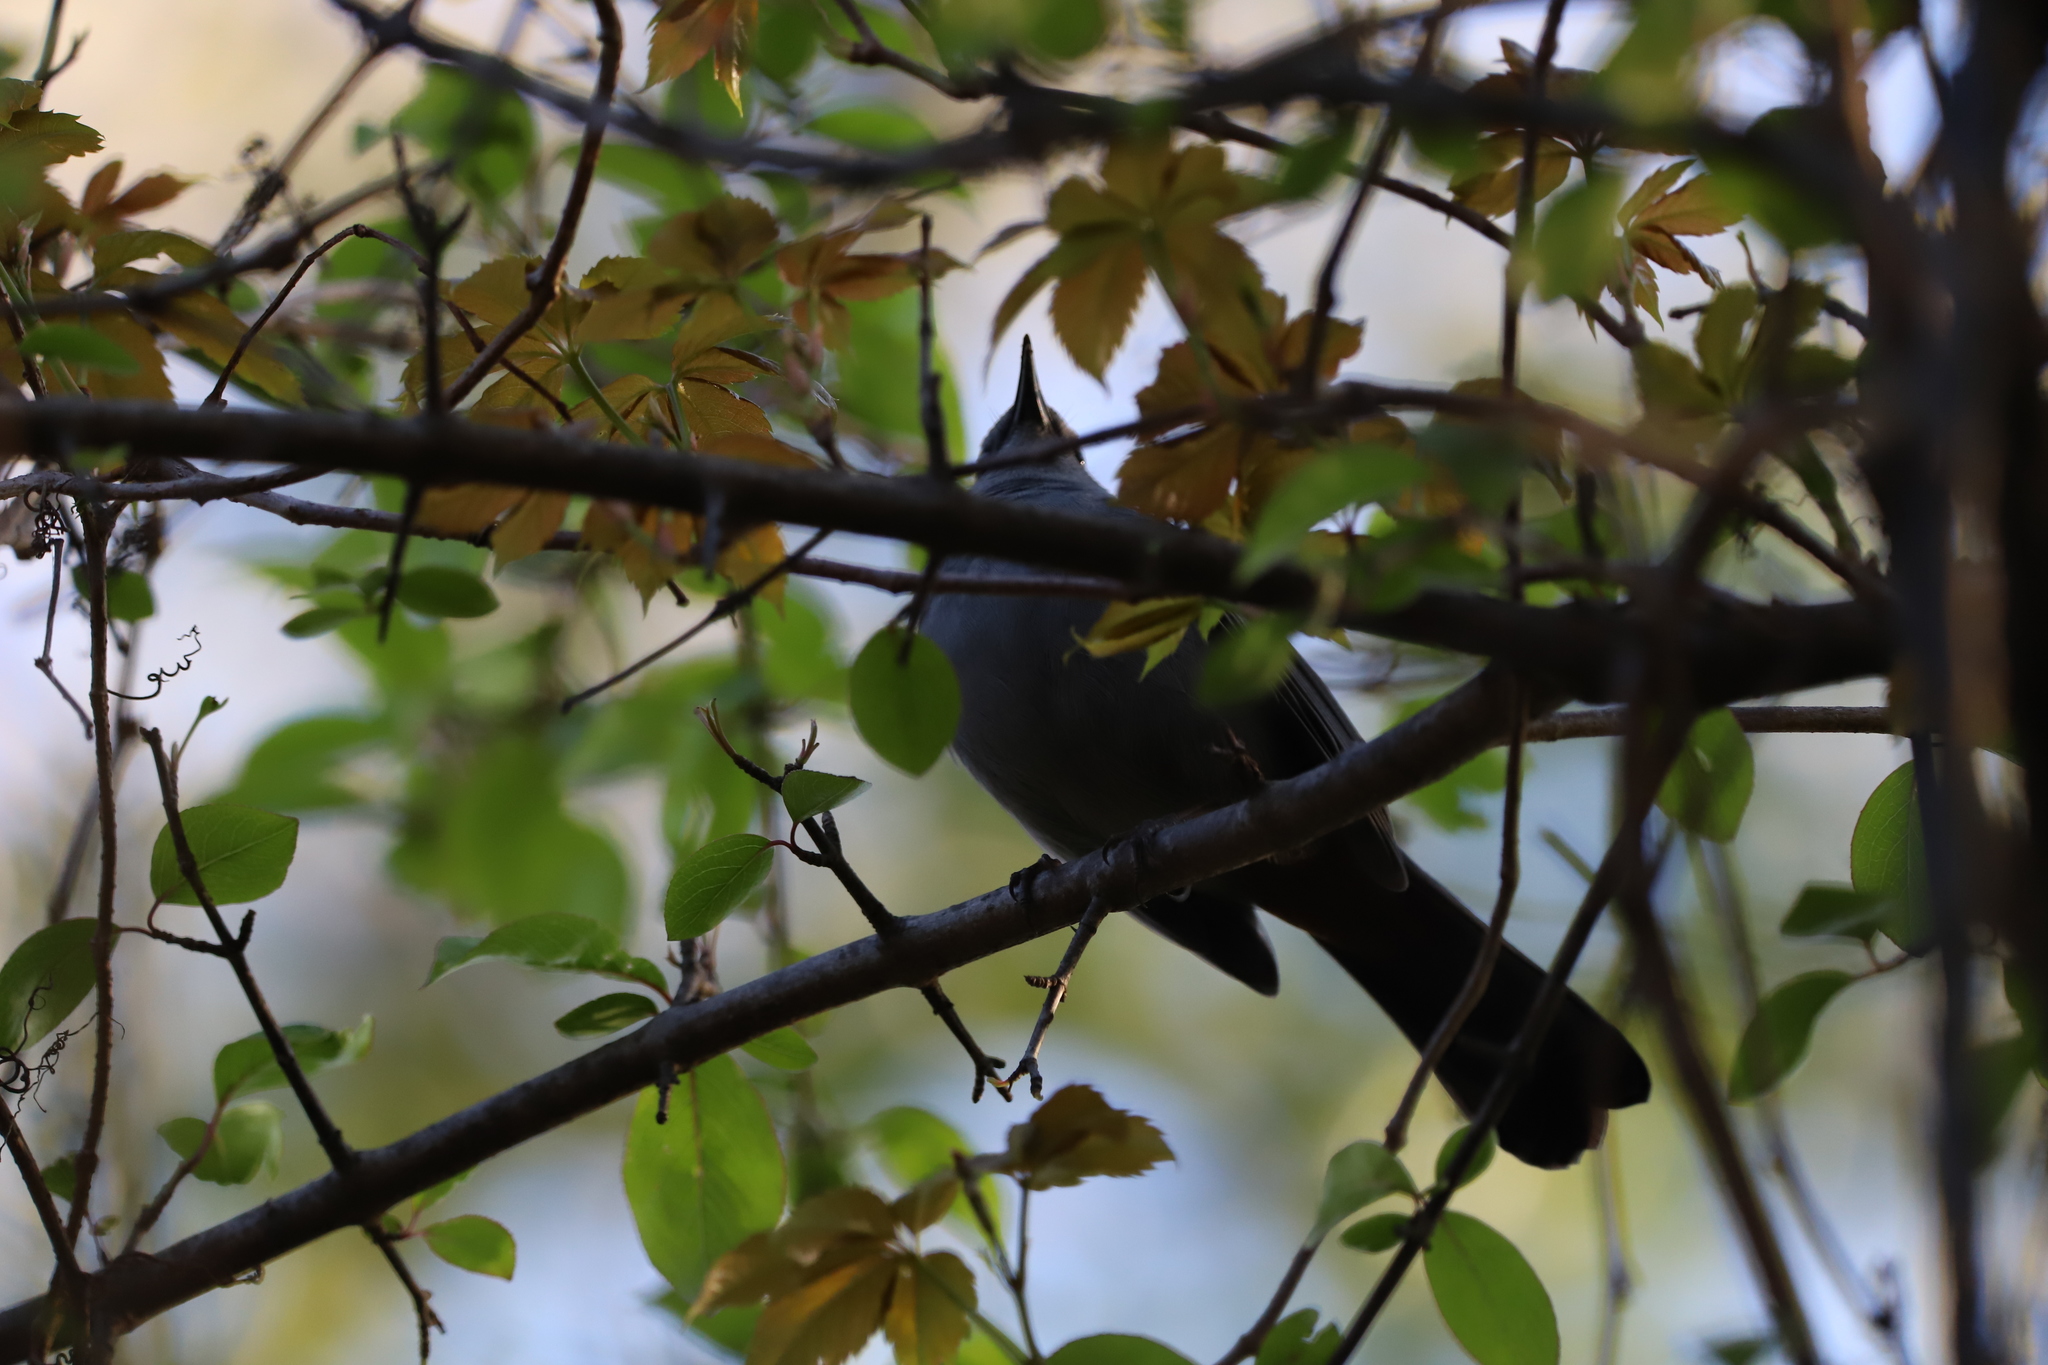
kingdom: Animalia
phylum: Chordata
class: Aves
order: Passeriformes
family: Mimidae
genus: Dumetella
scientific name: Dumetella carolinensis
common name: Gray catbird
